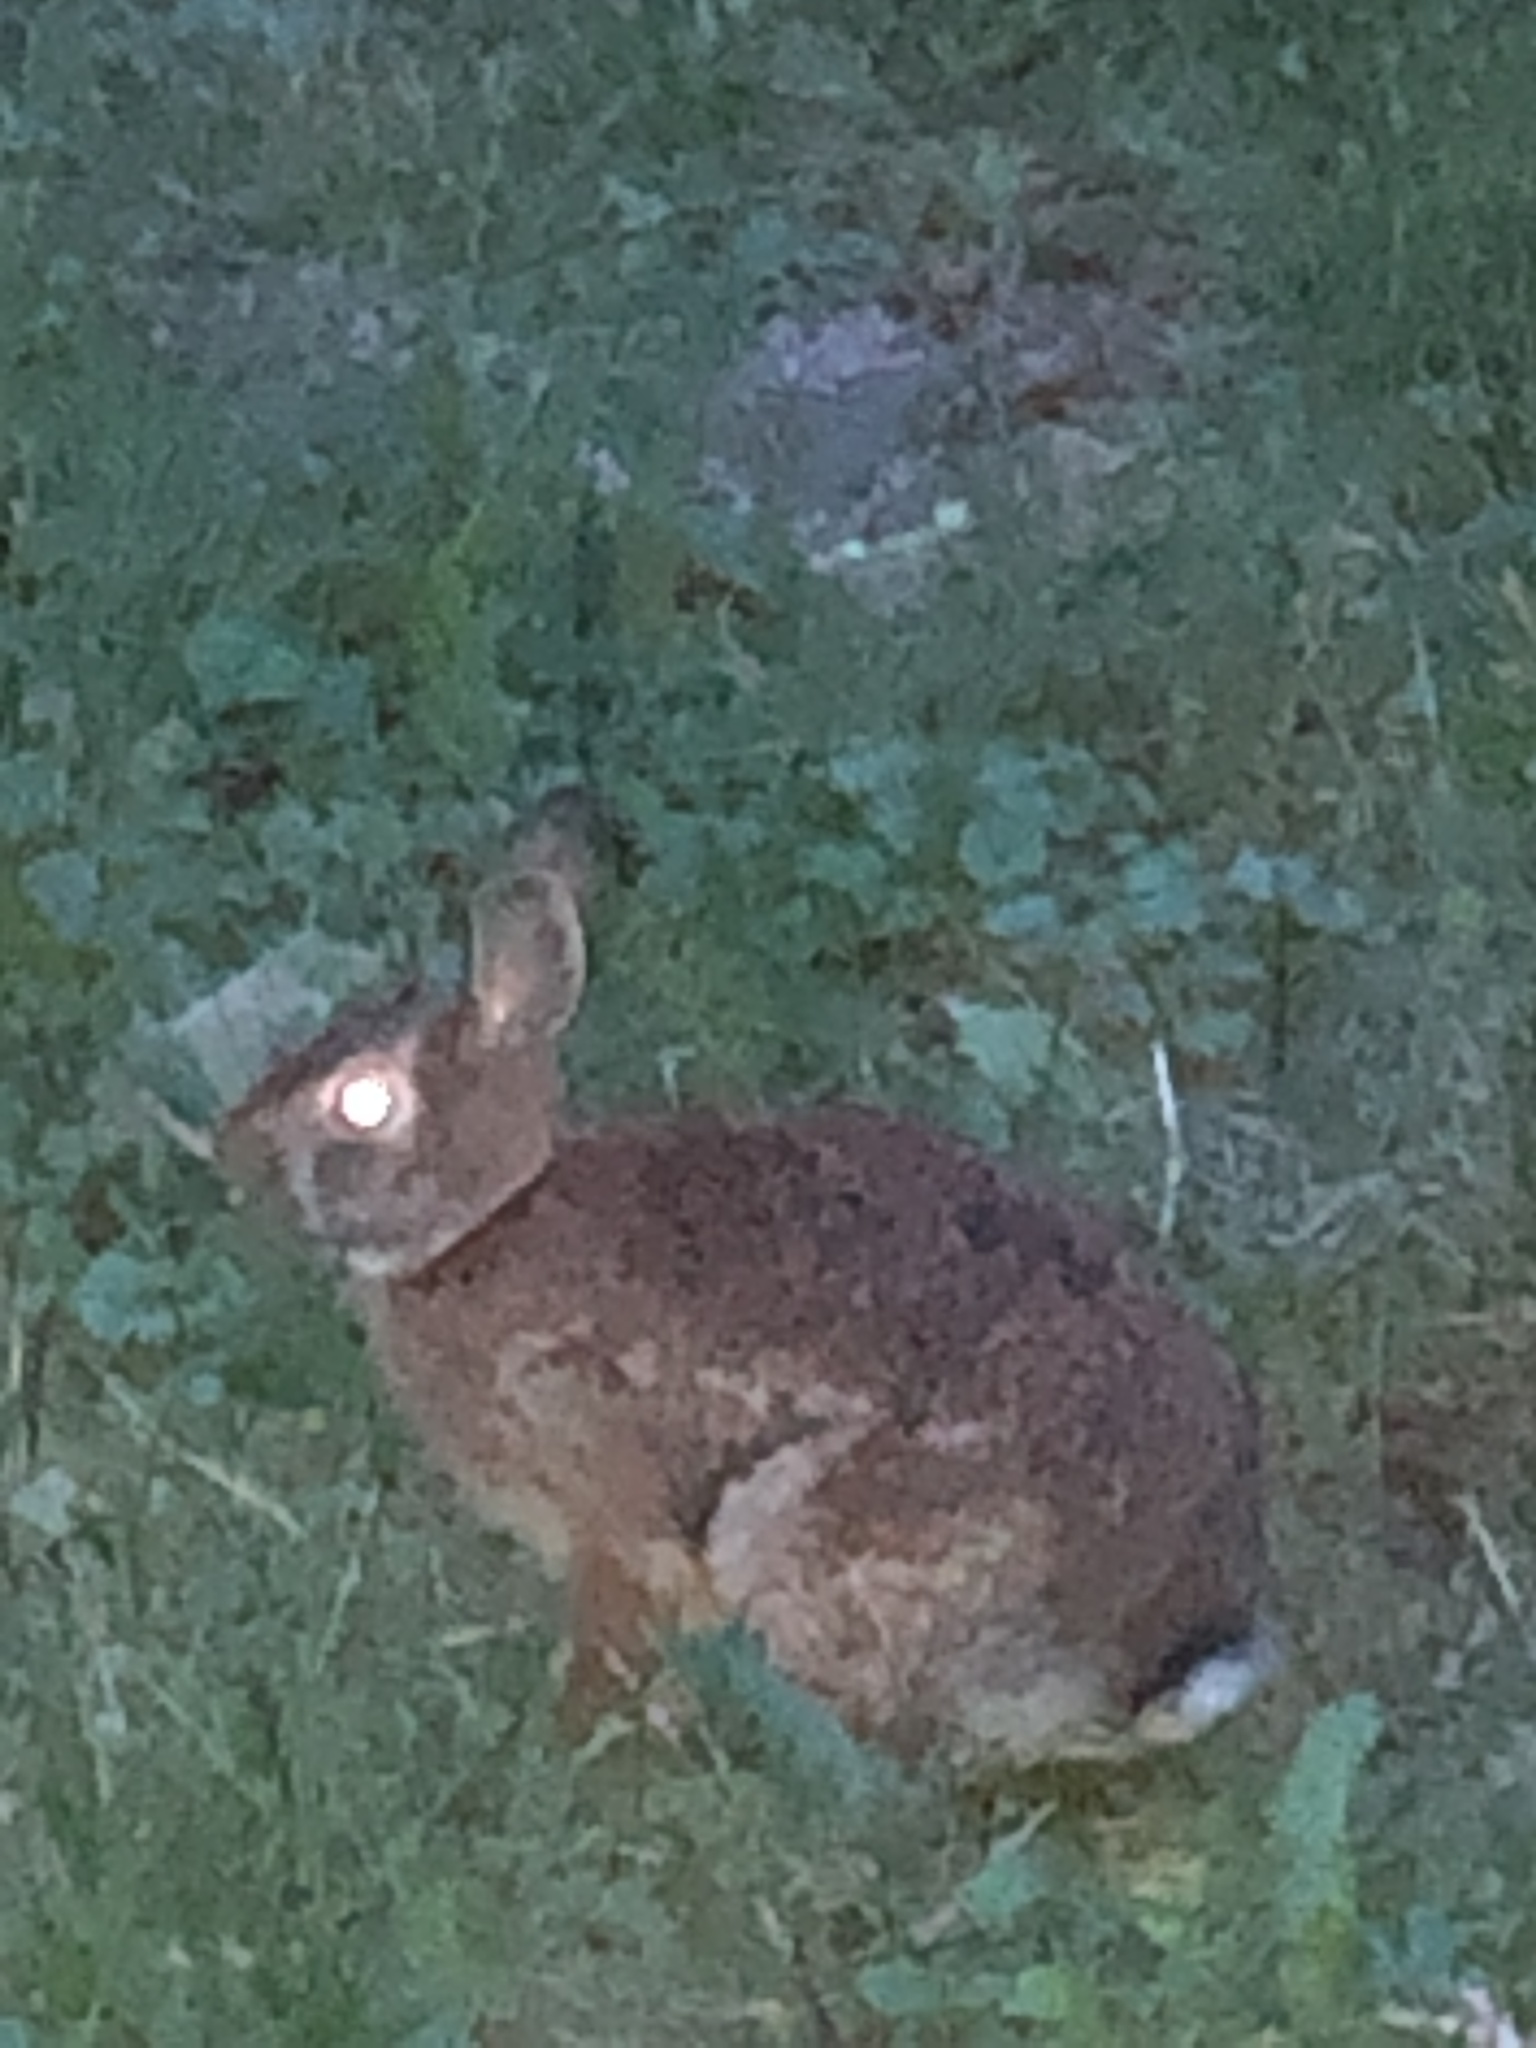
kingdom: Animalia
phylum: Chordata
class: Mammalia
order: Lagomorpha
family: Leporidae
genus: Sylvilagus
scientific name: Sylvilagus floridanus
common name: Eastern cottontail
